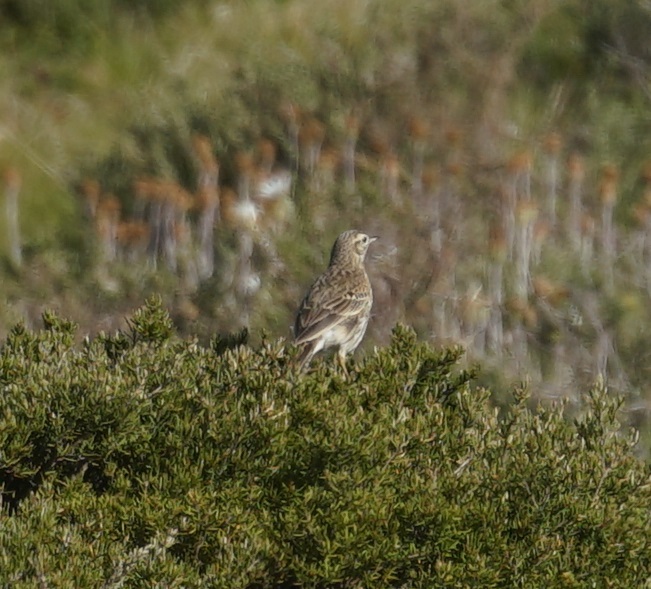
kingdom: Animalia
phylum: Chordata
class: Aves
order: Passeriformes
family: Motacillidae
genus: Anthus
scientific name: Anthus australis
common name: Australian pipit
